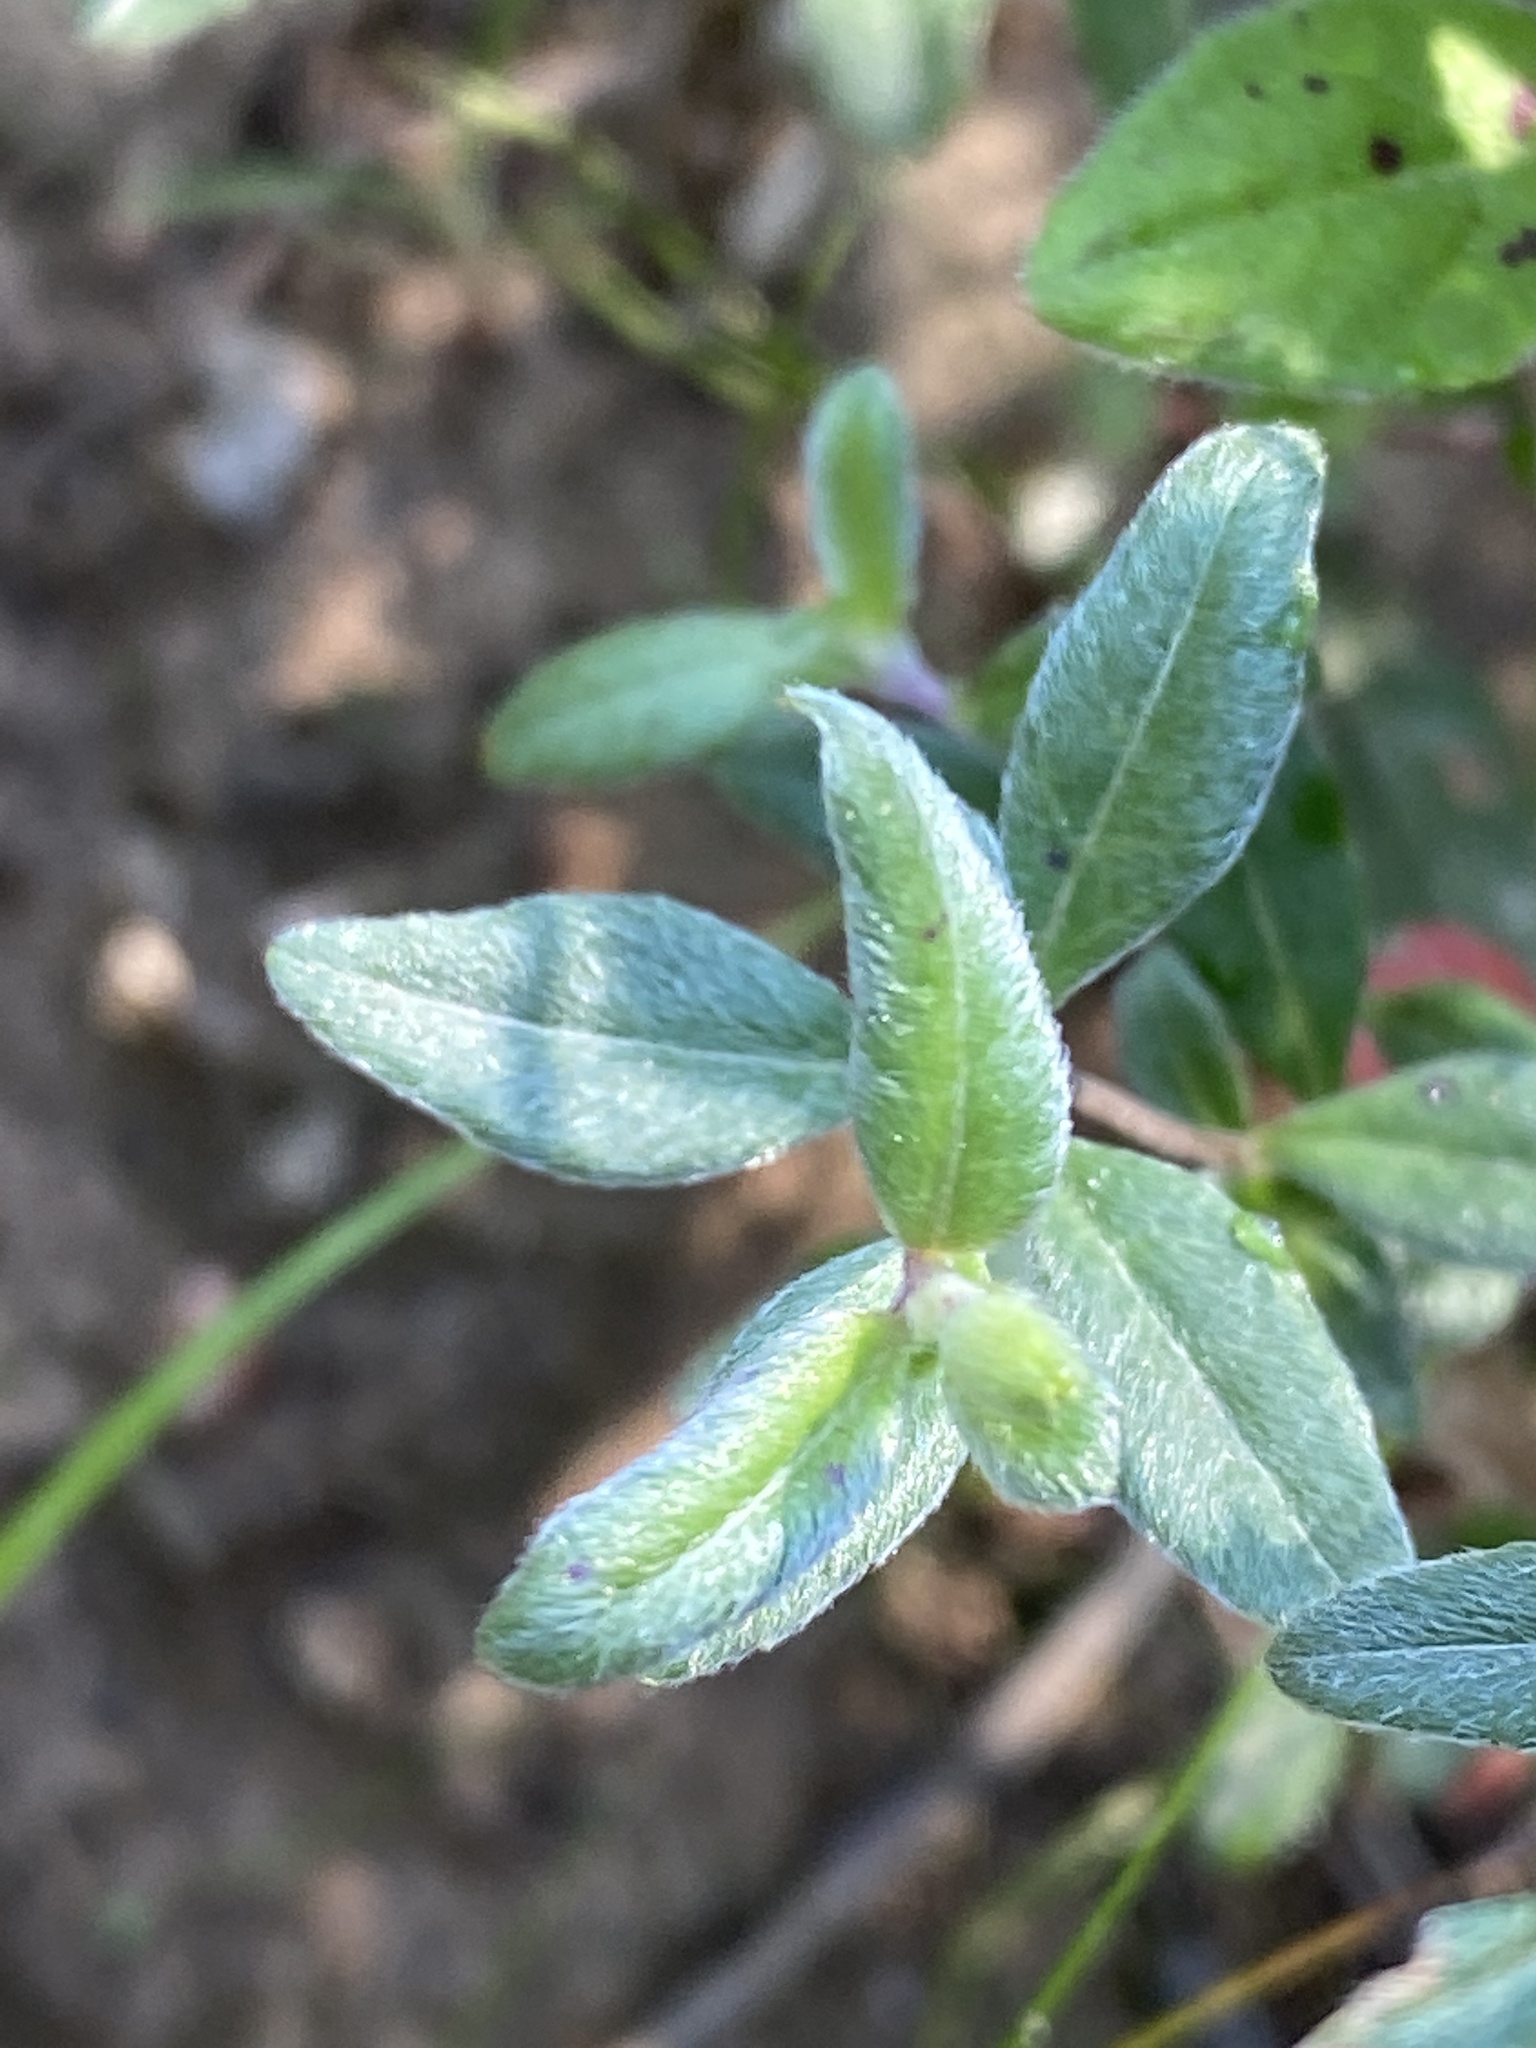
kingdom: Plantae
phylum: Tracheophyta
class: Magnoliopsida
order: Myrtales
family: Onagraceae
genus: Oenothera
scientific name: Oenothera fruticosa
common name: Southern sundrops
